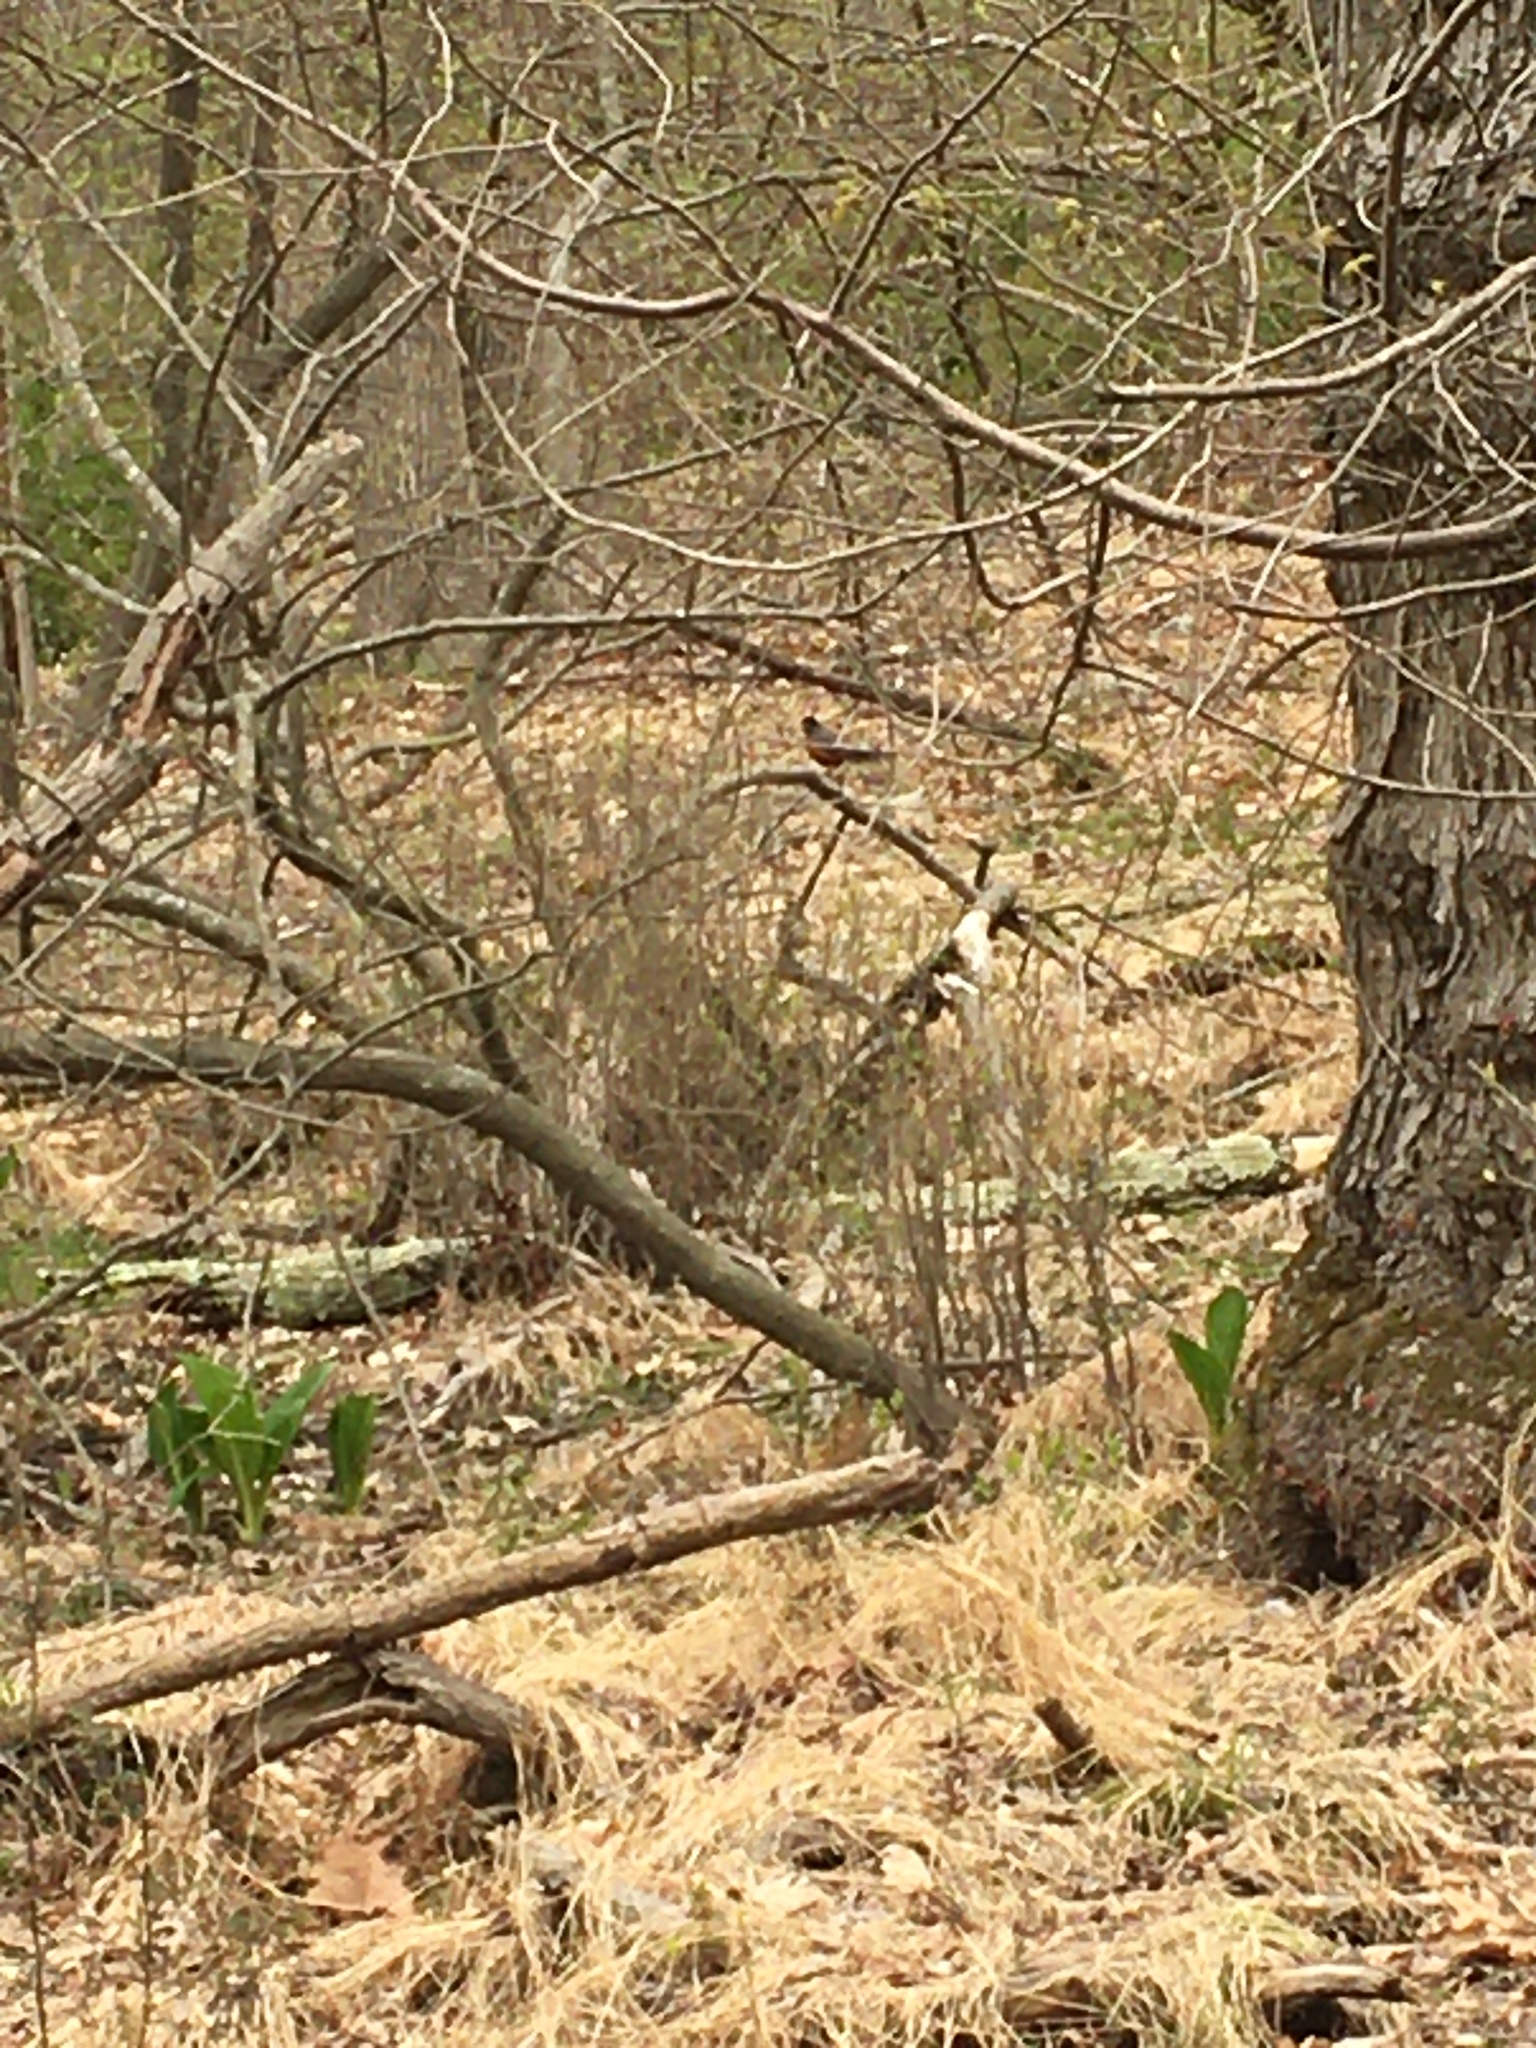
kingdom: Animalia
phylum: Chordata
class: Aves
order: Passeriformes
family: Turdidae
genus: Turdus
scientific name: Turdus migratorius
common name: American robin
